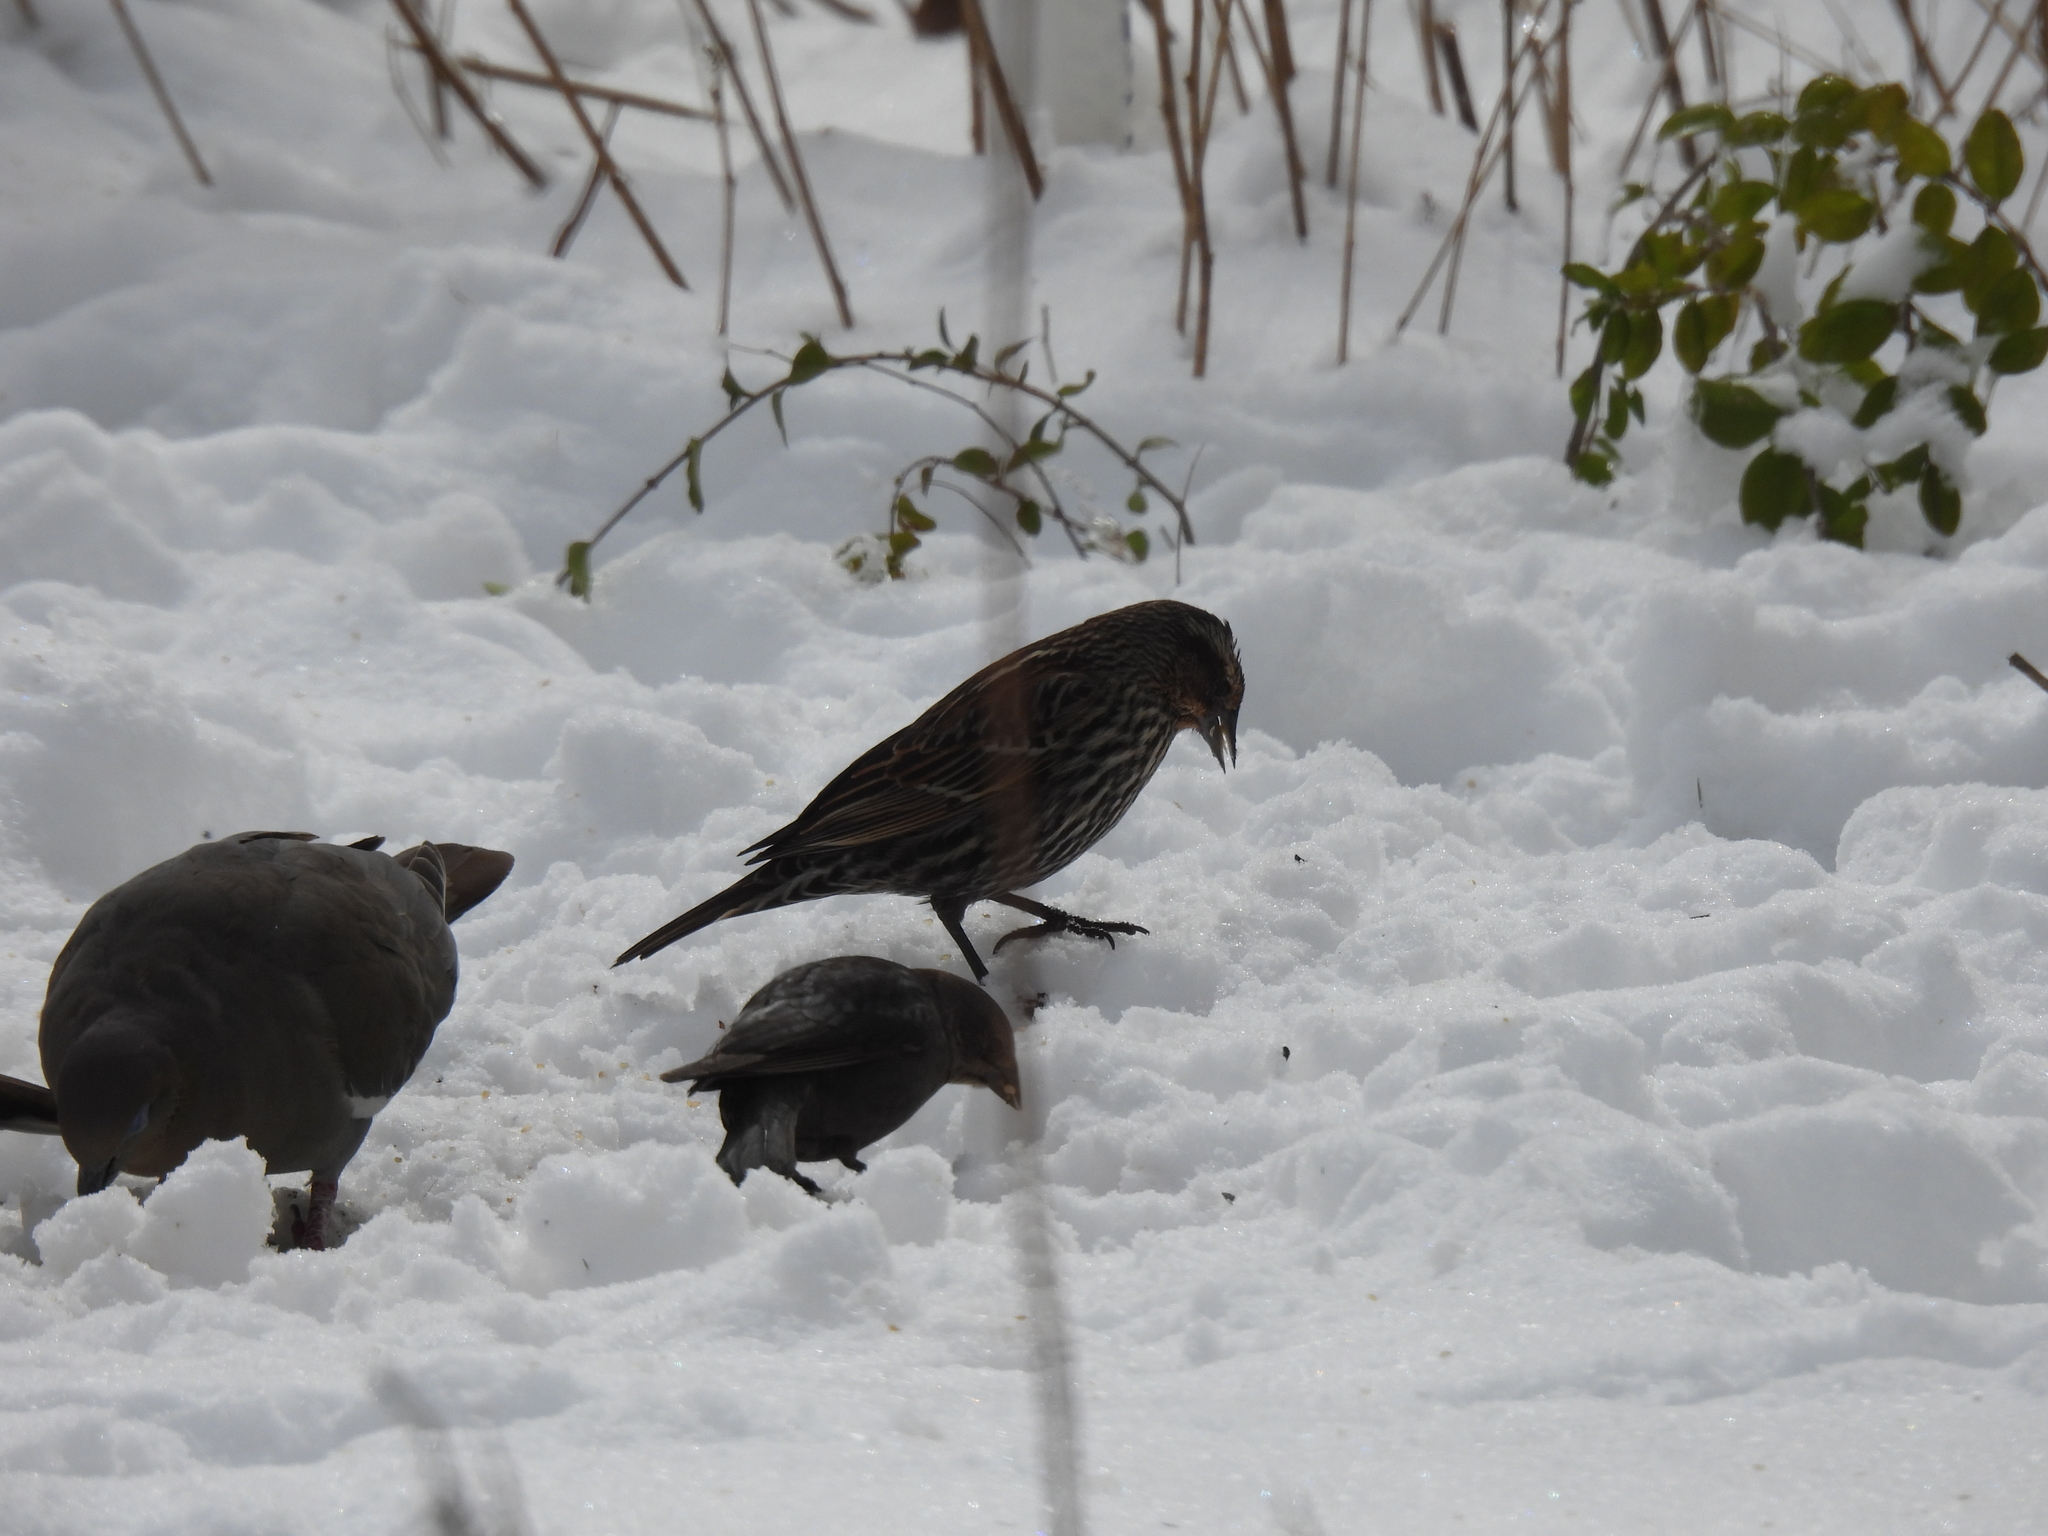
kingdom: Animalia
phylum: Chordata
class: Aves
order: Passeriformes
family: Icteridae
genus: Agelaius
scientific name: Agelaius phoeniceus
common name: Red-winged blackbird
